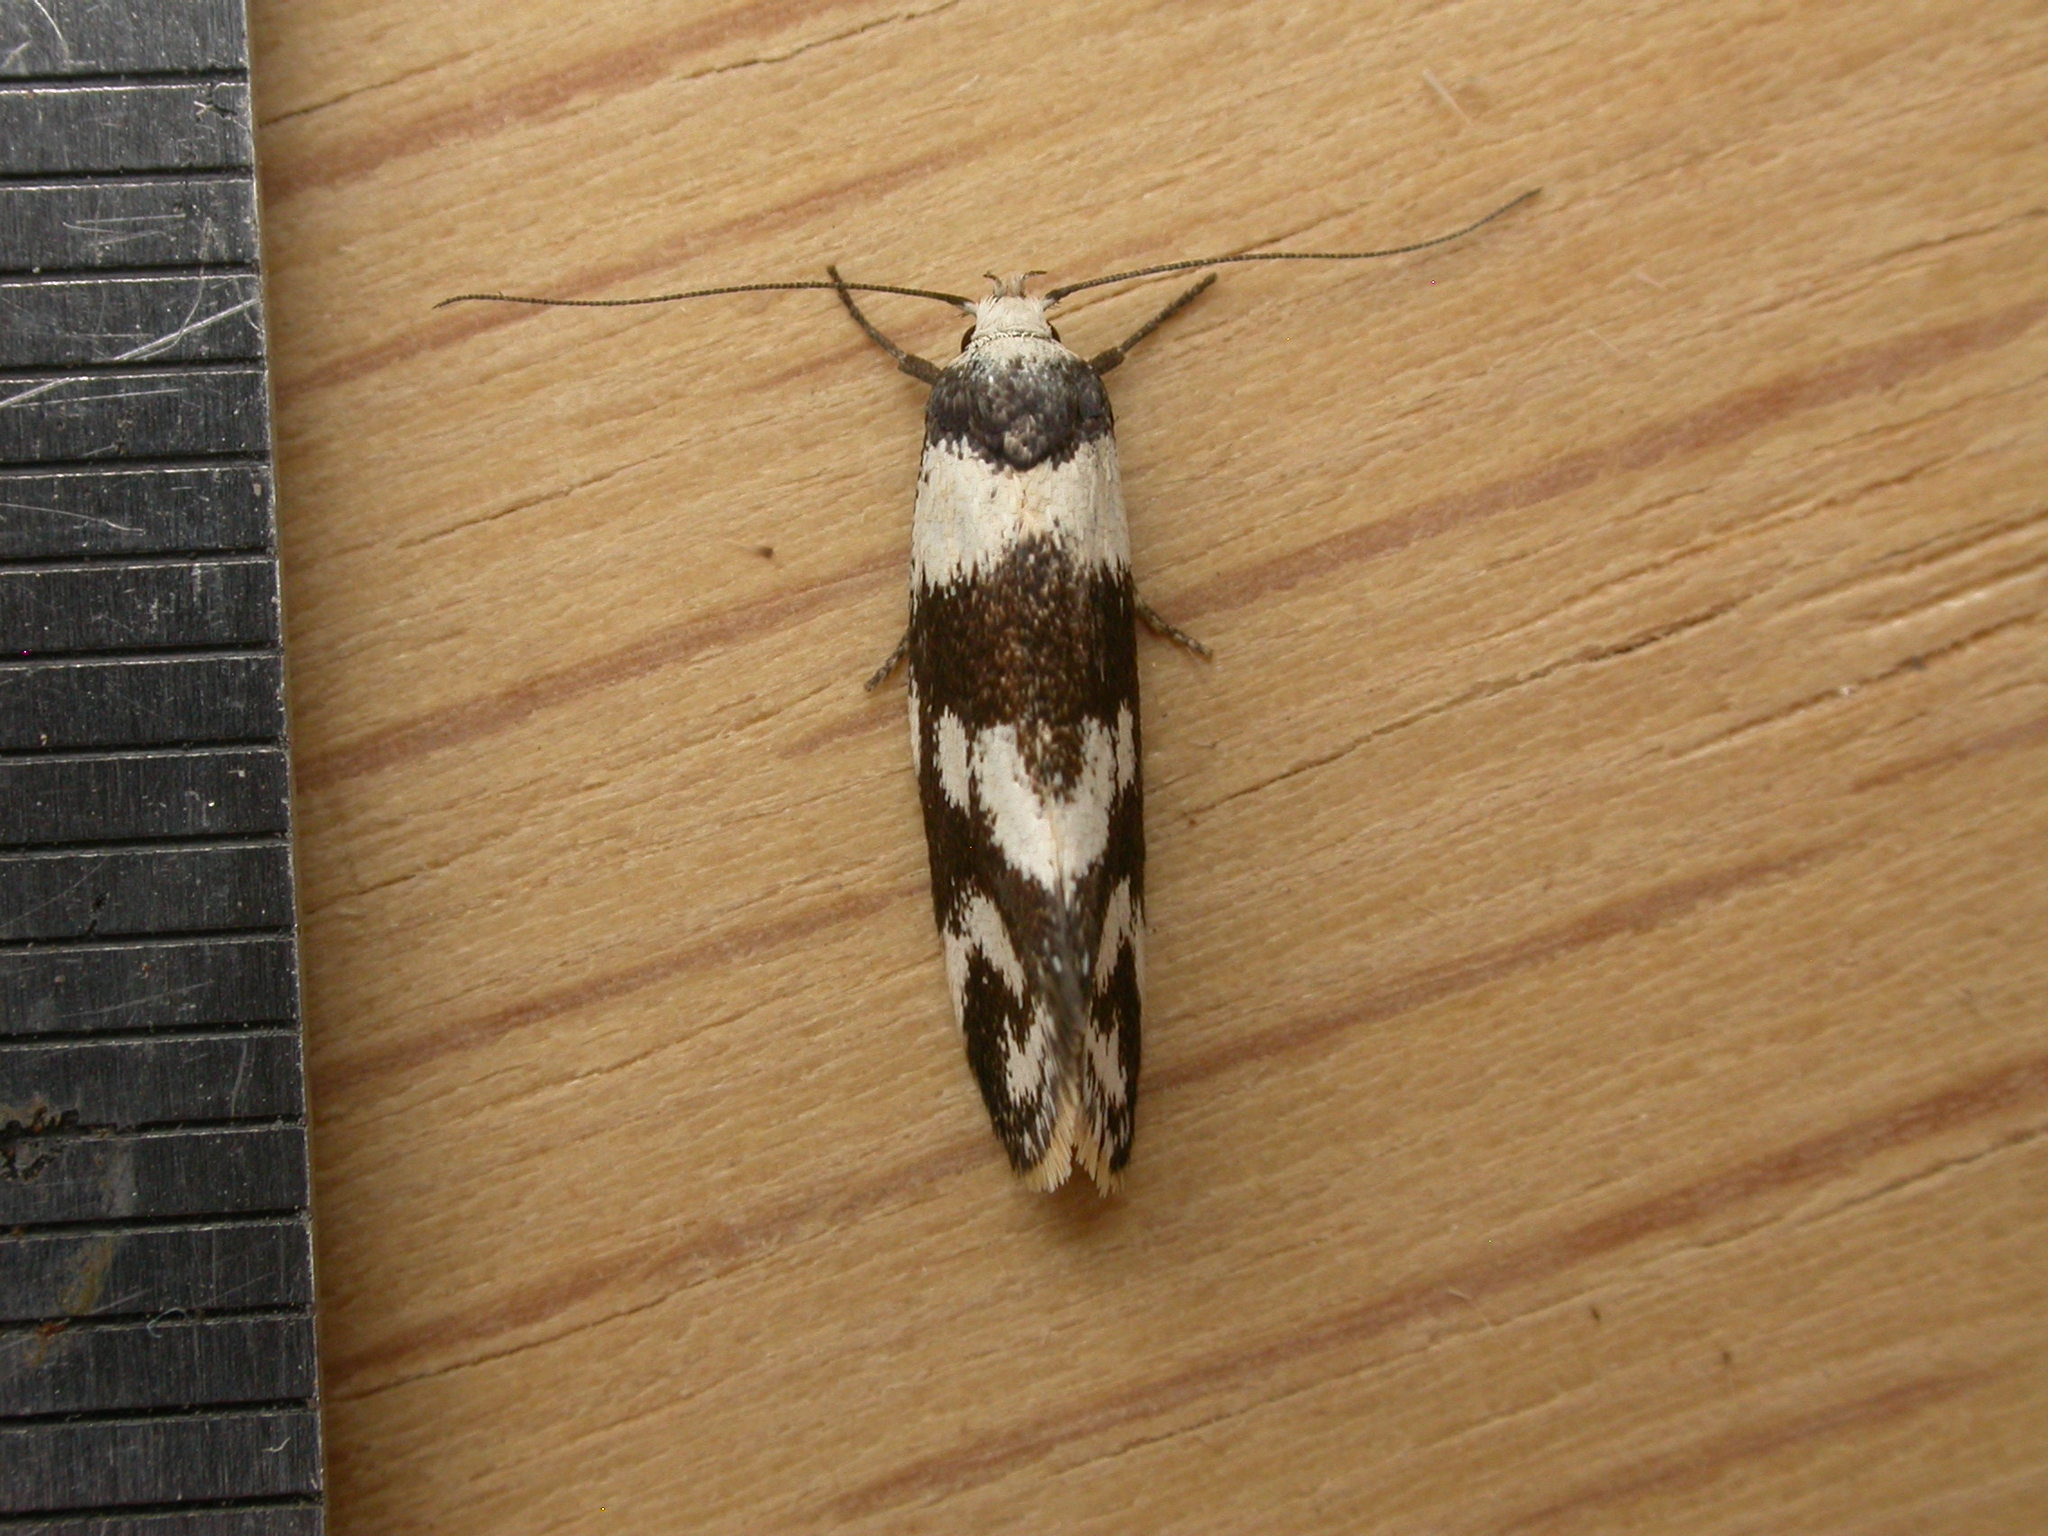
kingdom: Animalia
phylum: Arthropoda
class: Insecta
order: Lepidoptera
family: Oecophoridae
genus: Isomoralla
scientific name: Isomoralla eriscota
